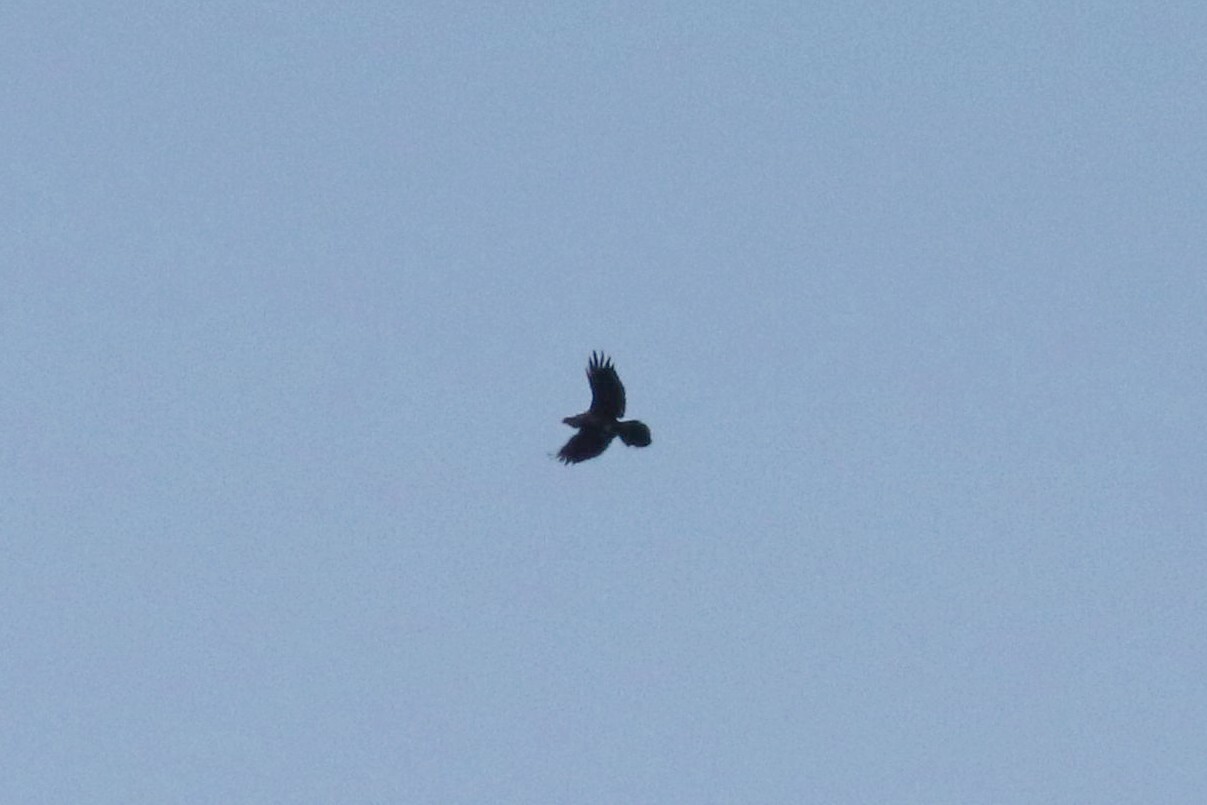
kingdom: Animalia
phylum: Chordata
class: Aves
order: Passeriformes
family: Corvidae
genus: Corvus
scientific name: Corvus corax
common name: Common raven
